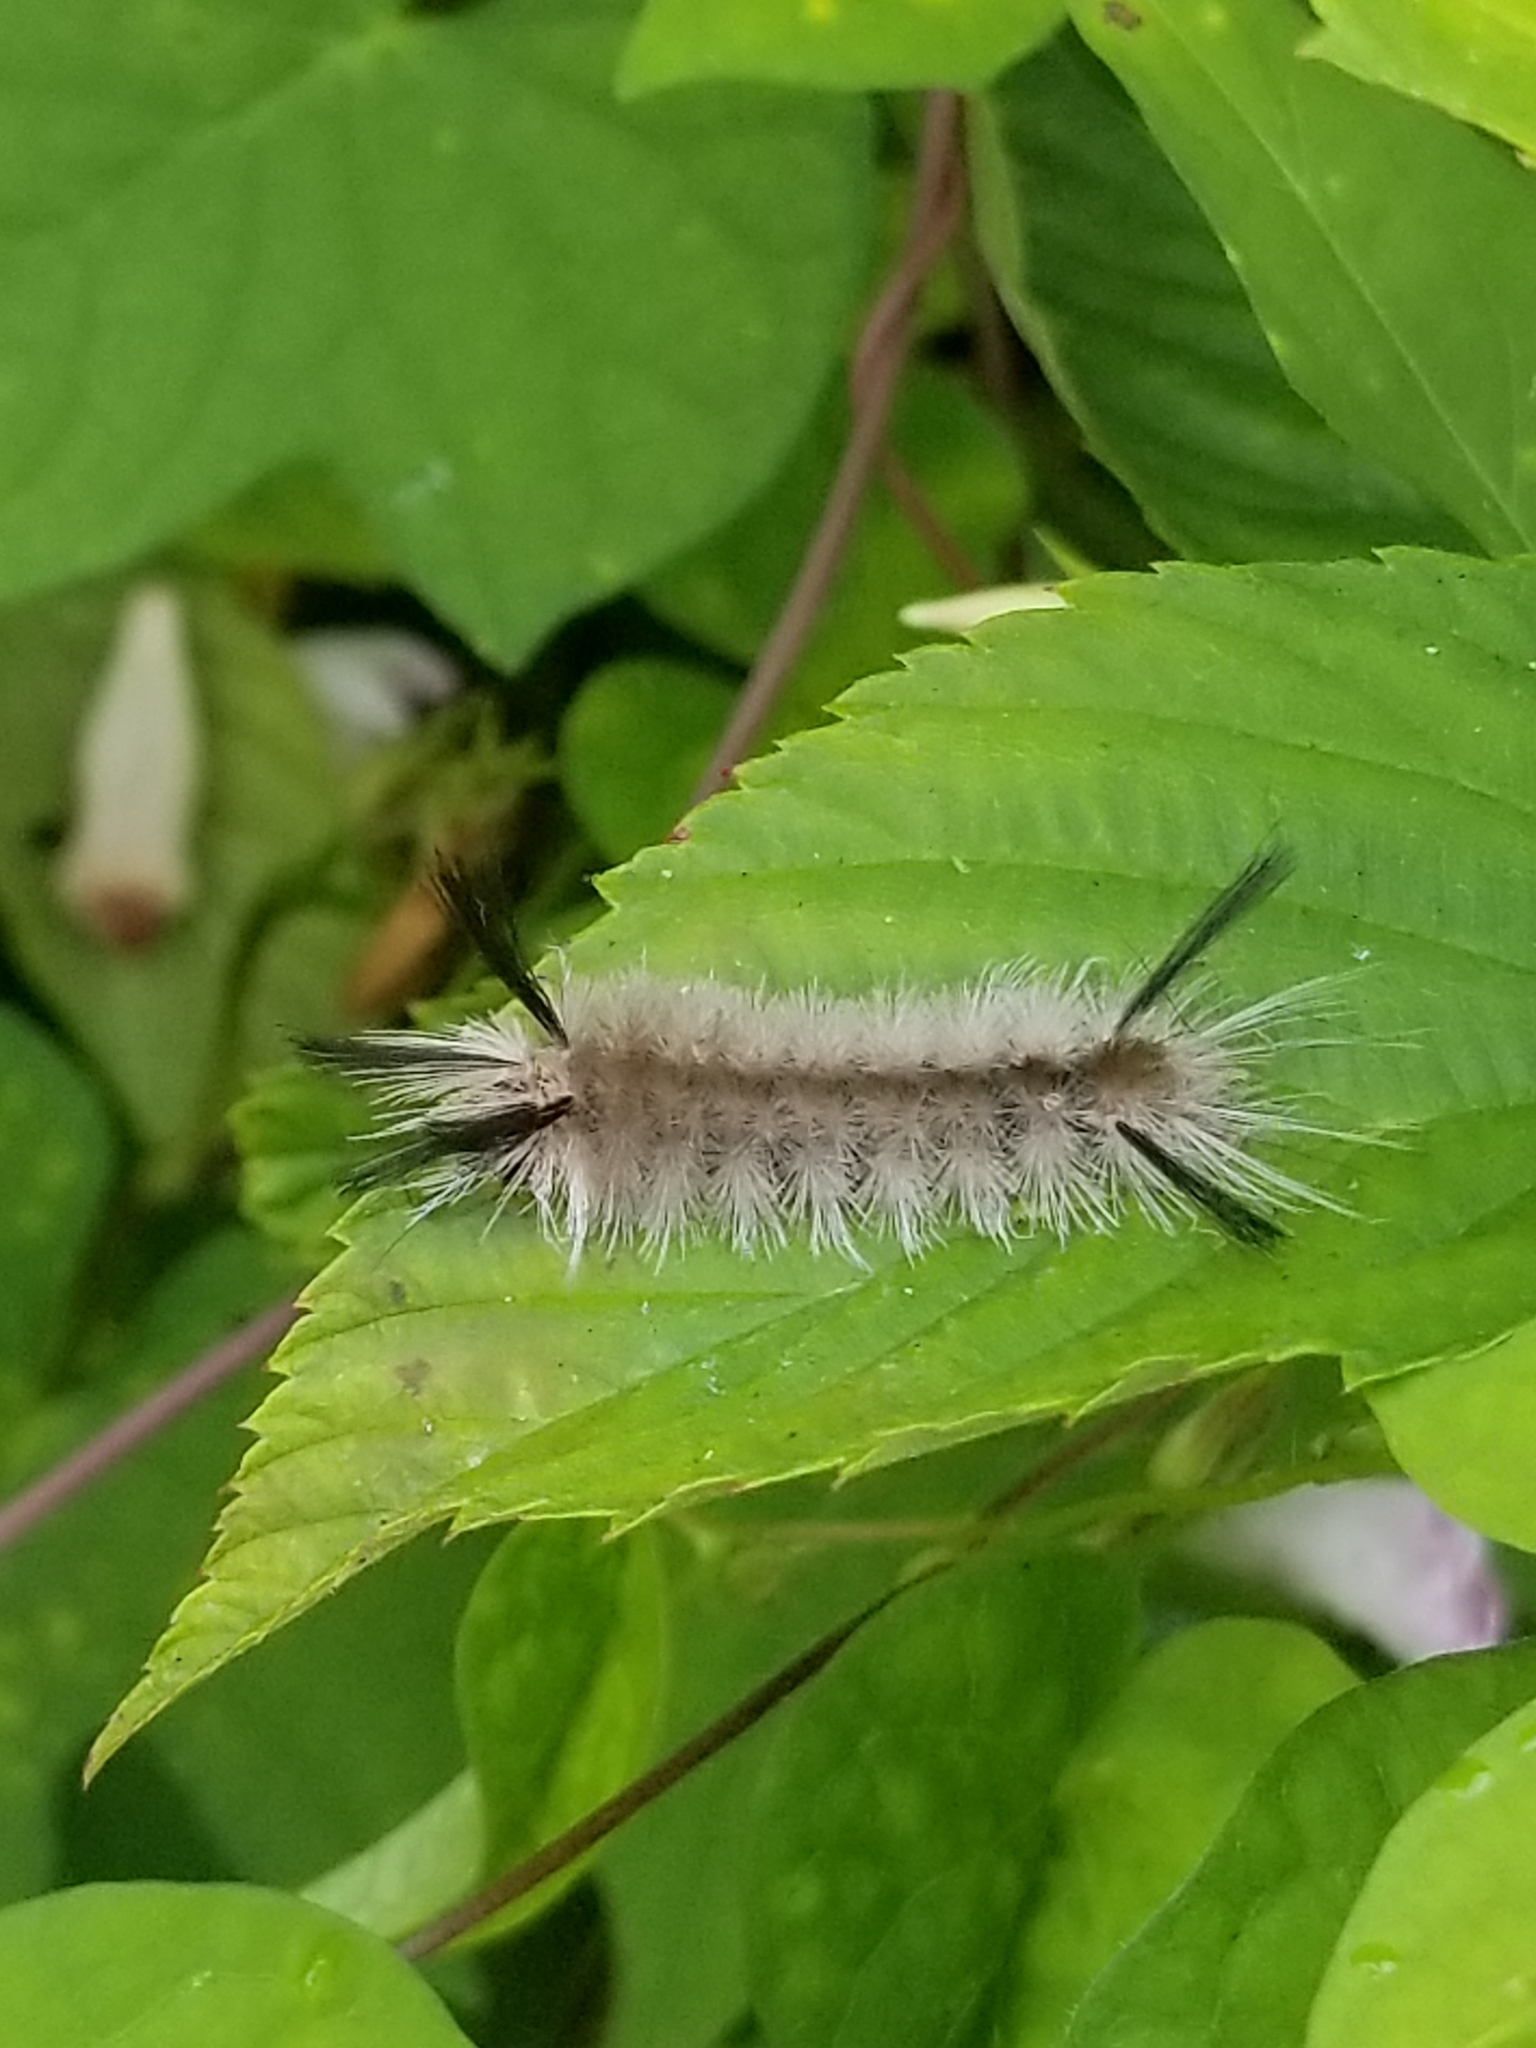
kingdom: Animalia
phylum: Arthropoda
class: Insecta
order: Lepidoptera
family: Erebidae
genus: Halysidota
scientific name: Halysidota tessellaris
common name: Banded tussock moth
